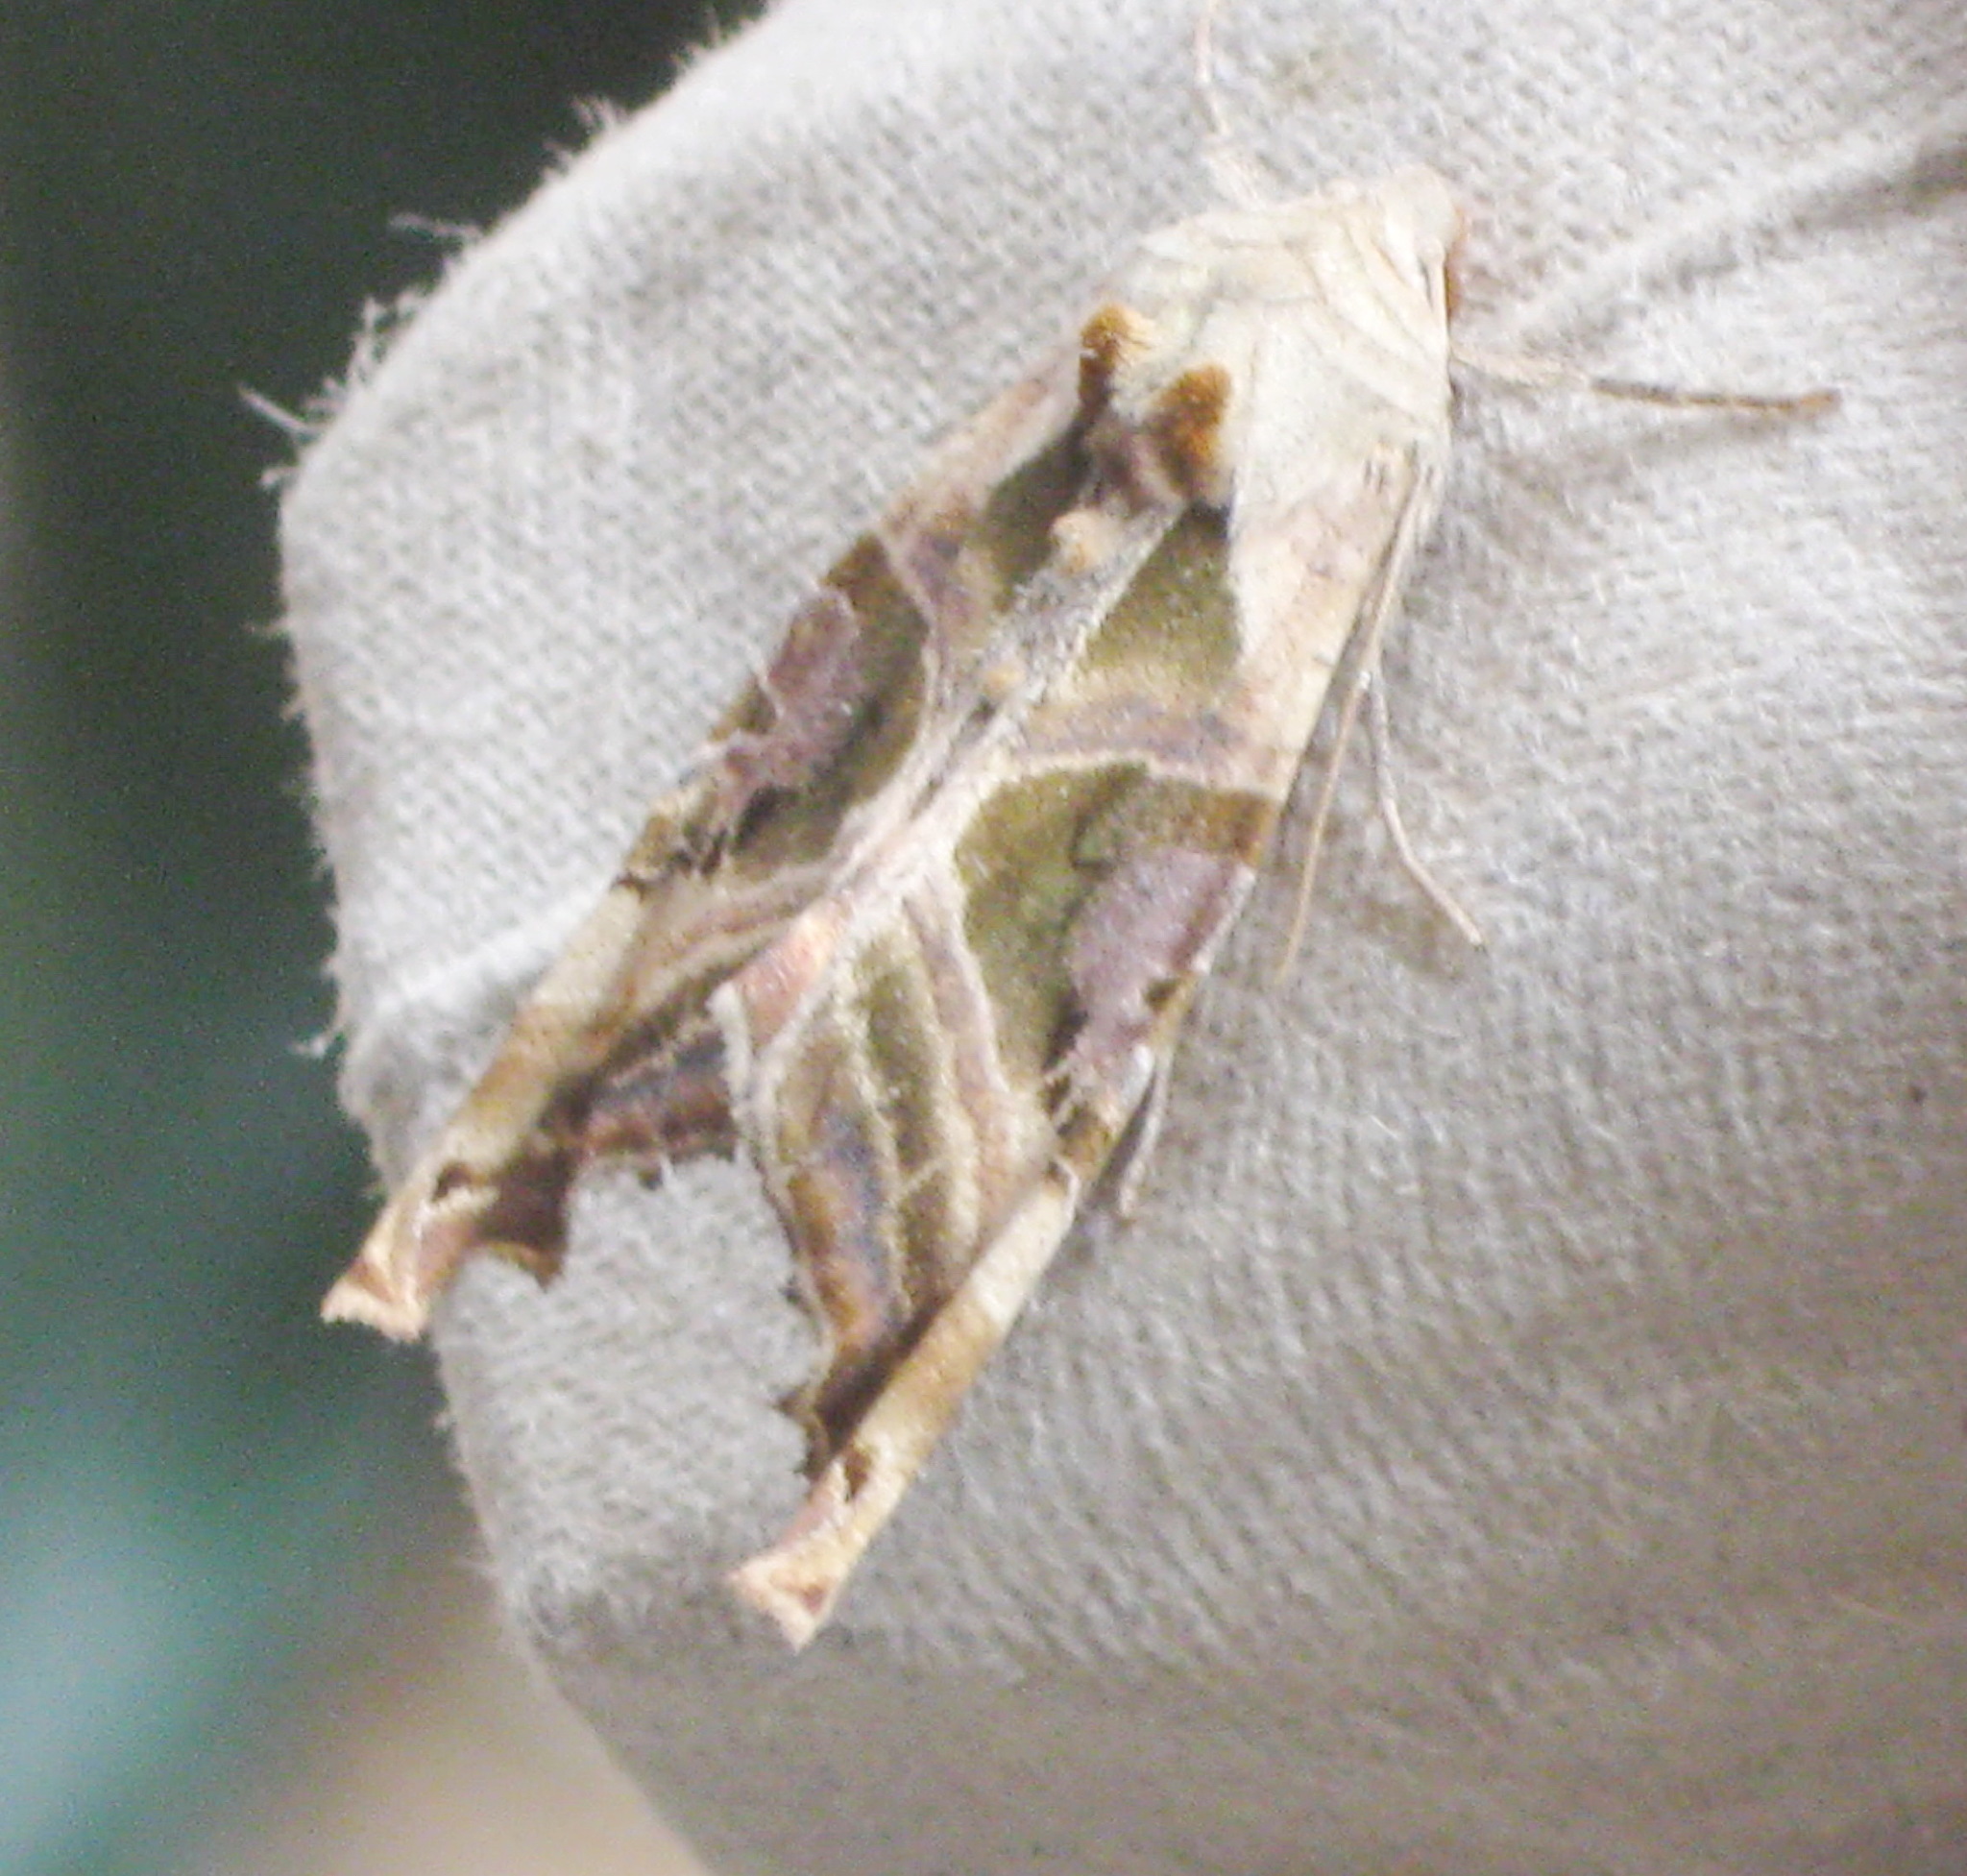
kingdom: Animalia
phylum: Arthropoda
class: Insecta
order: Lepidoptera
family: Noctuidae
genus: Phlogophora
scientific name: Phlogophora iris
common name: Olive angle shades
